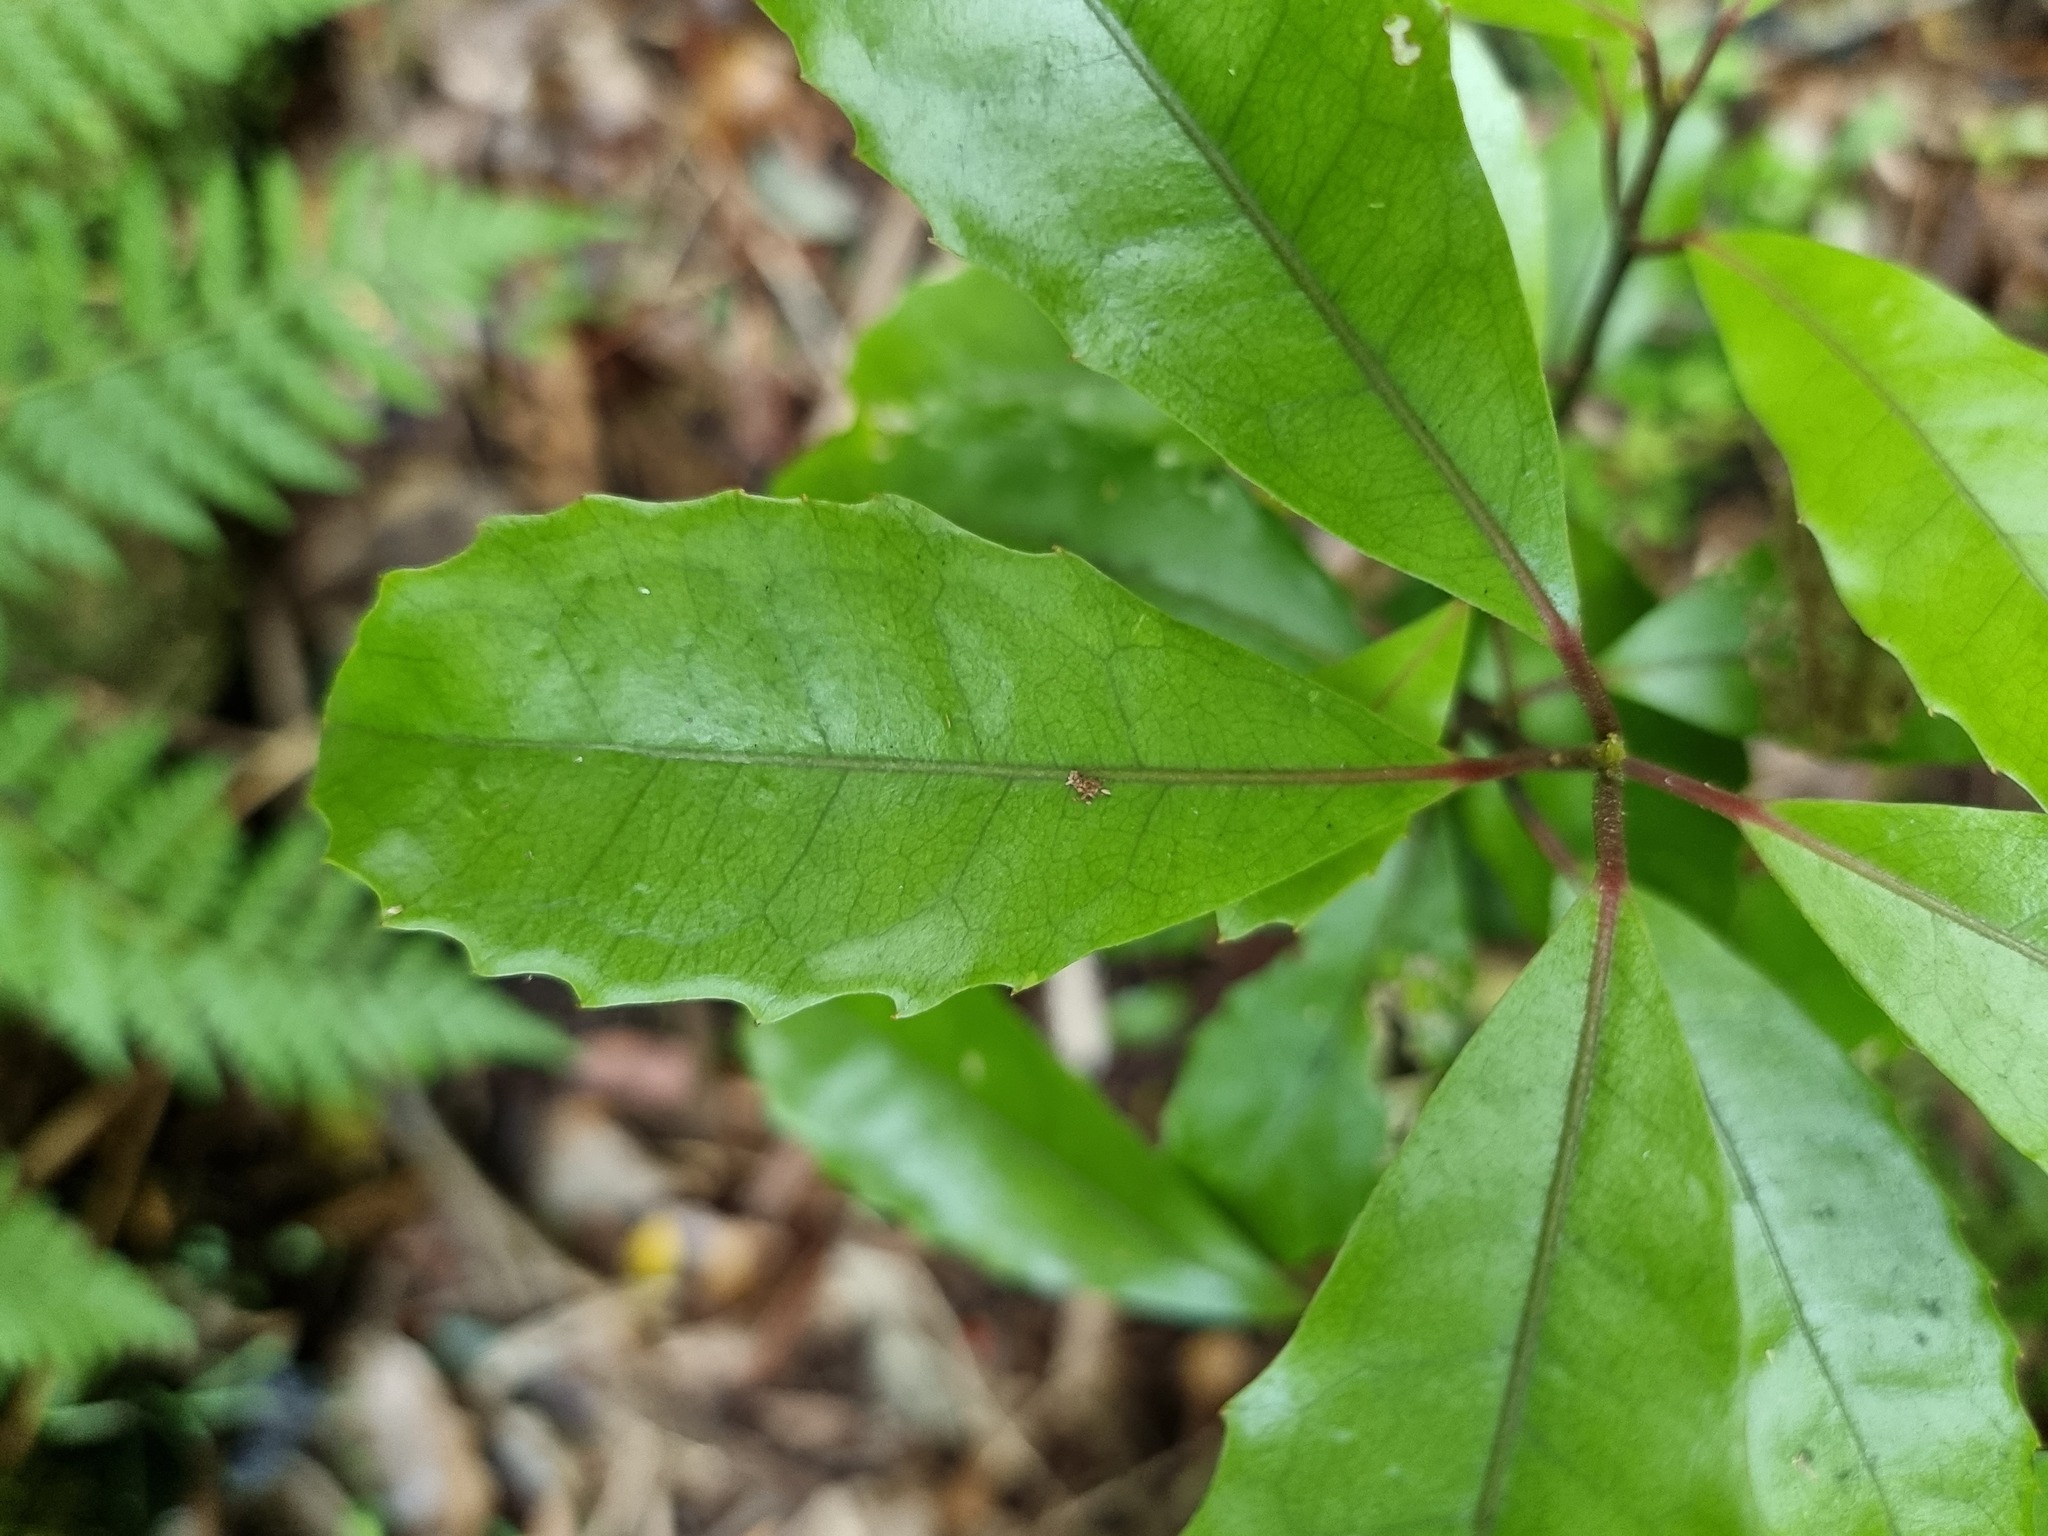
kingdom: Plantae
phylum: Tracheophyta
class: Magnoliopsida
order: Laurales
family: Monimiaceae
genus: Hedycarya
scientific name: Hedycarya arborea
